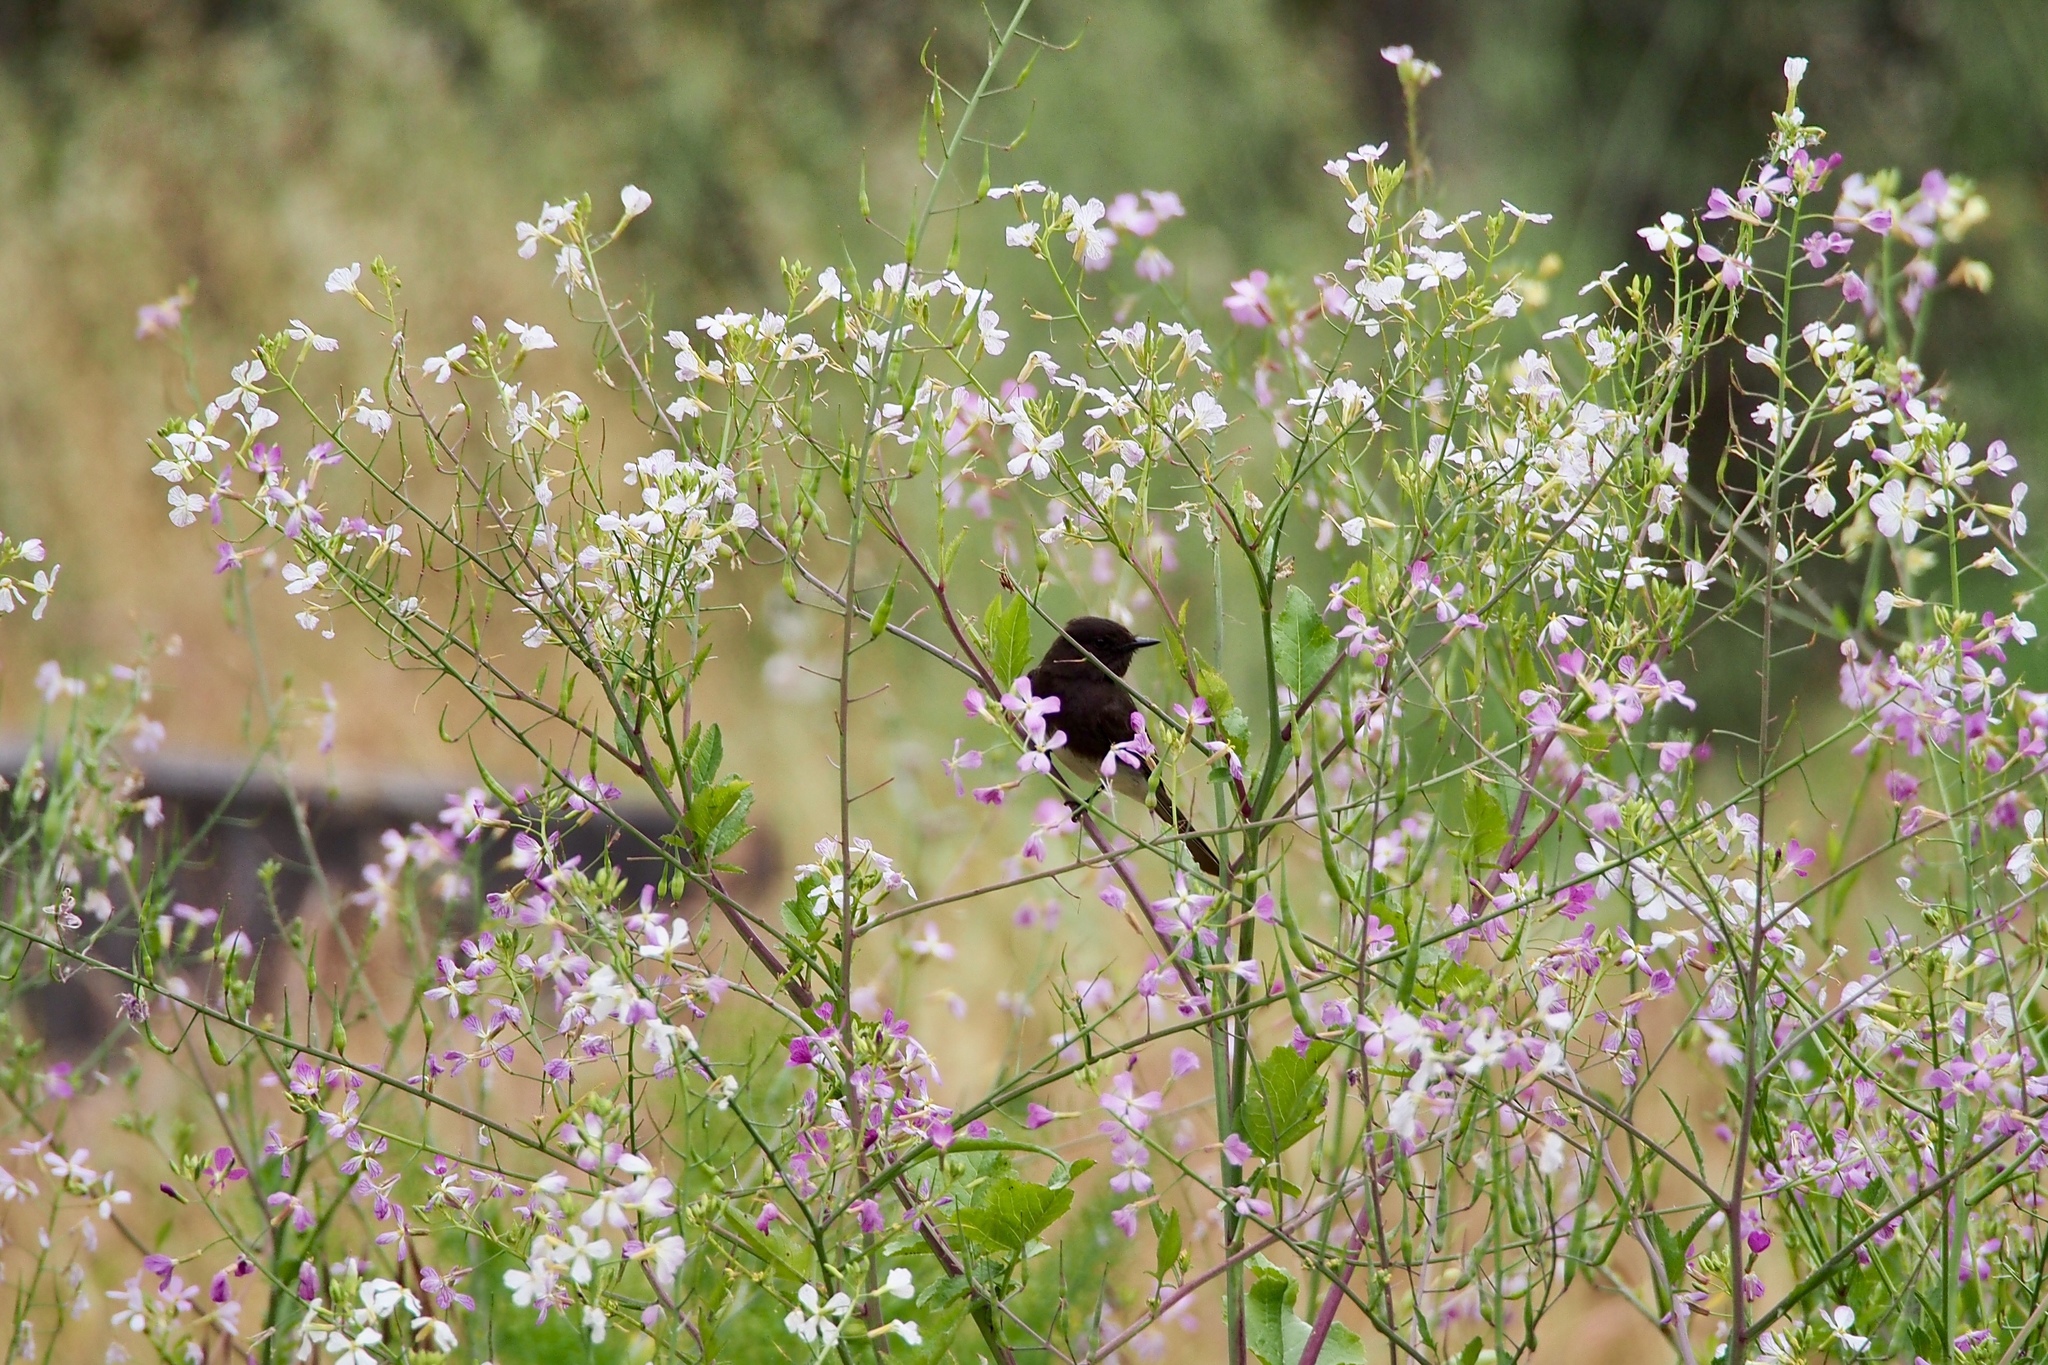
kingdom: Animalia
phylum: Chordata
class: Aves
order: Passeriformes
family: Tyrannidae
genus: Sayornis
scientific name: Sayornis nigricans
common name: Black phoebe
